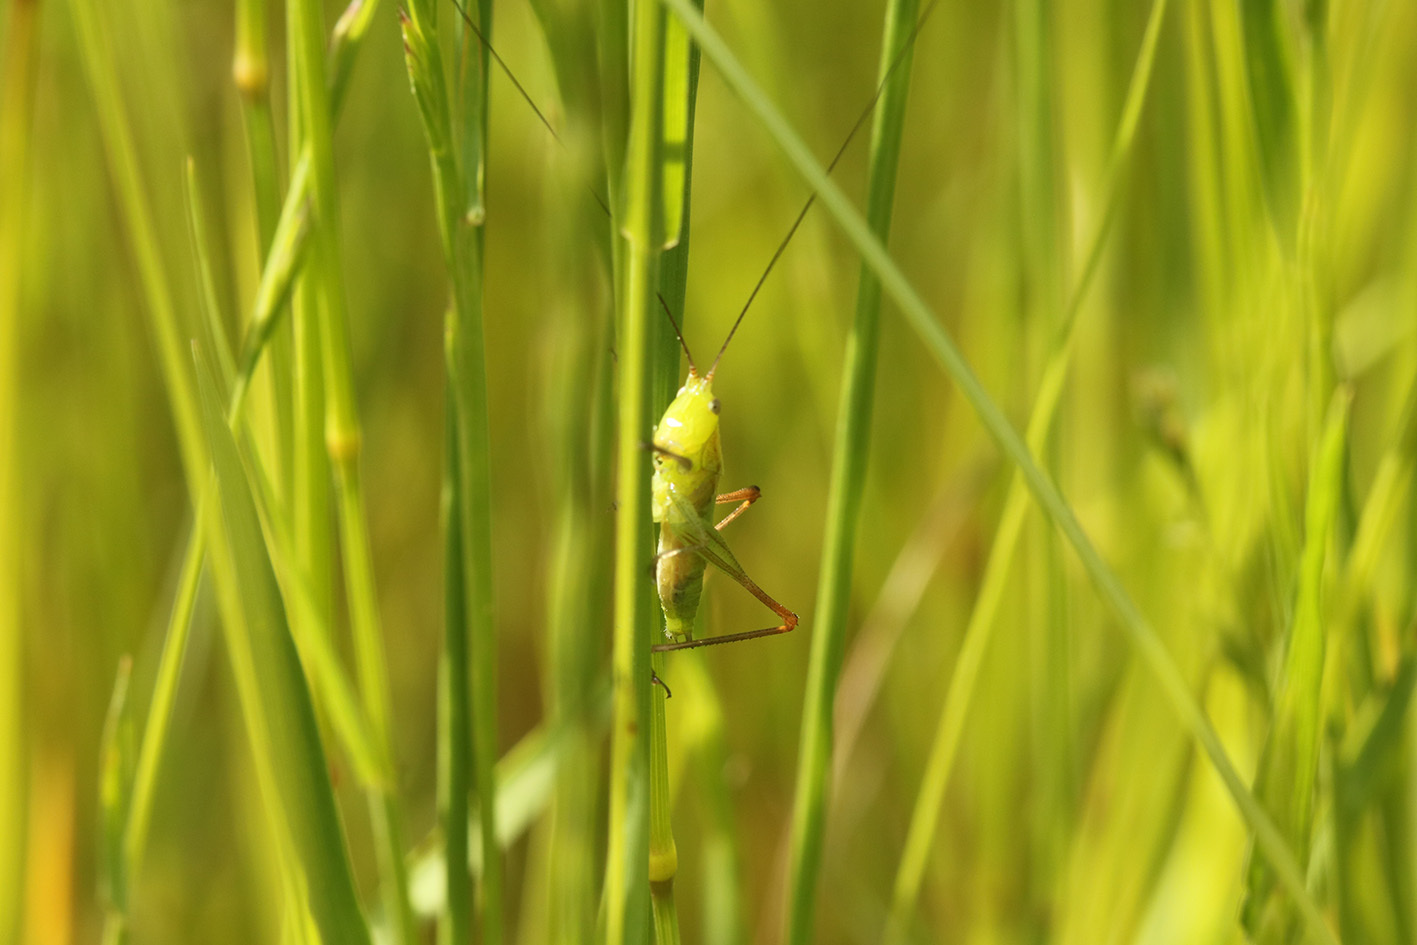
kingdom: Animalia
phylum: Arthropoda
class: Insecta
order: Orthoptera
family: Tettigoniidae
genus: Conocephalus
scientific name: Conocephalus longipes
